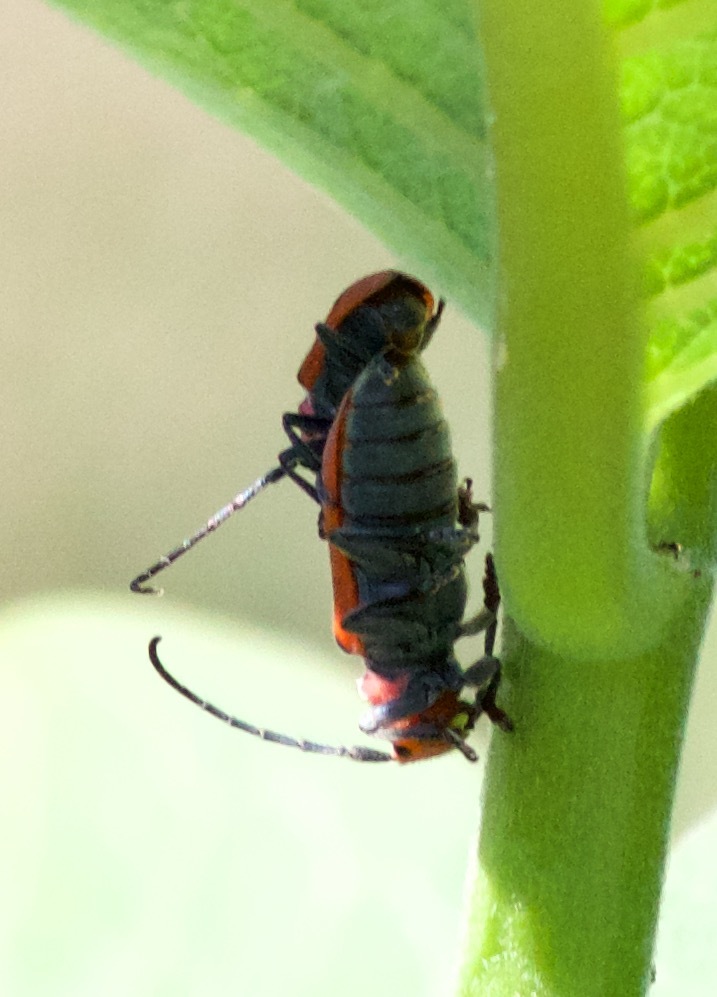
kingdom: Animalia
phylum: Arthropoda
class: Insecta
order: Coleoptera
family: Cerambycidae
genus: Tetraopes
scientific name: Tetraopes tetrophthalmus
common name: Red milkweed beetle
